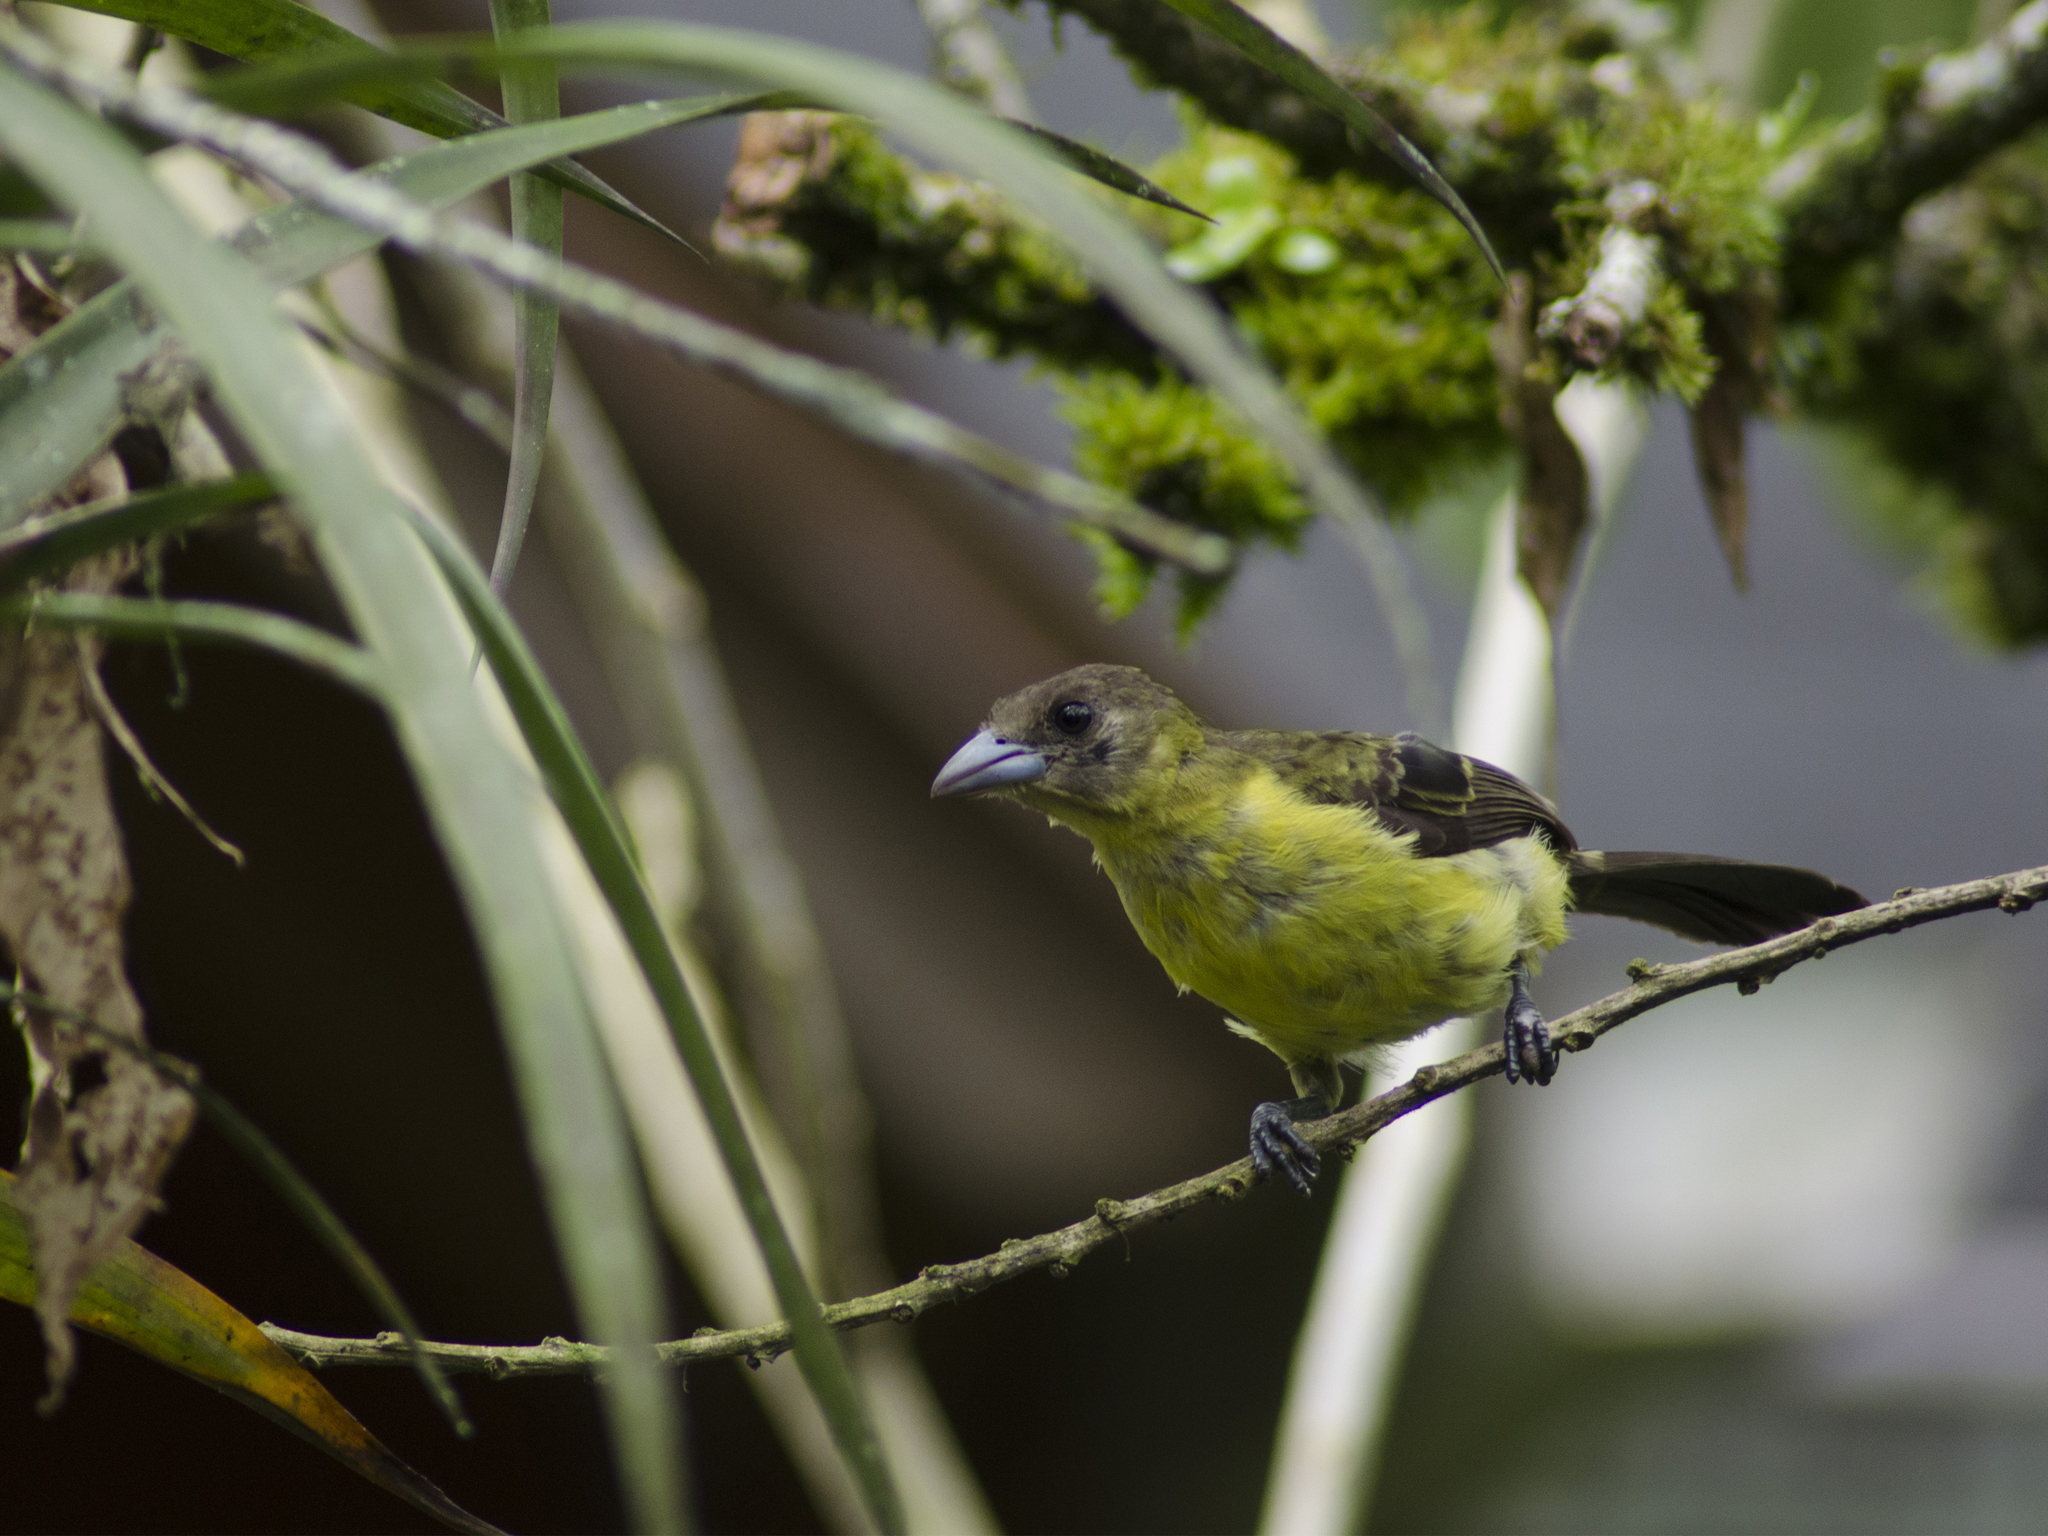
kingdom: Animalia
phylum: Chordata
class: Aves
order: Passeriformes
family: Thraupidae
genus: Ramphocelus
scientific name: Ramphocelus icteronotus
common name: Lemon-rumped tanager
